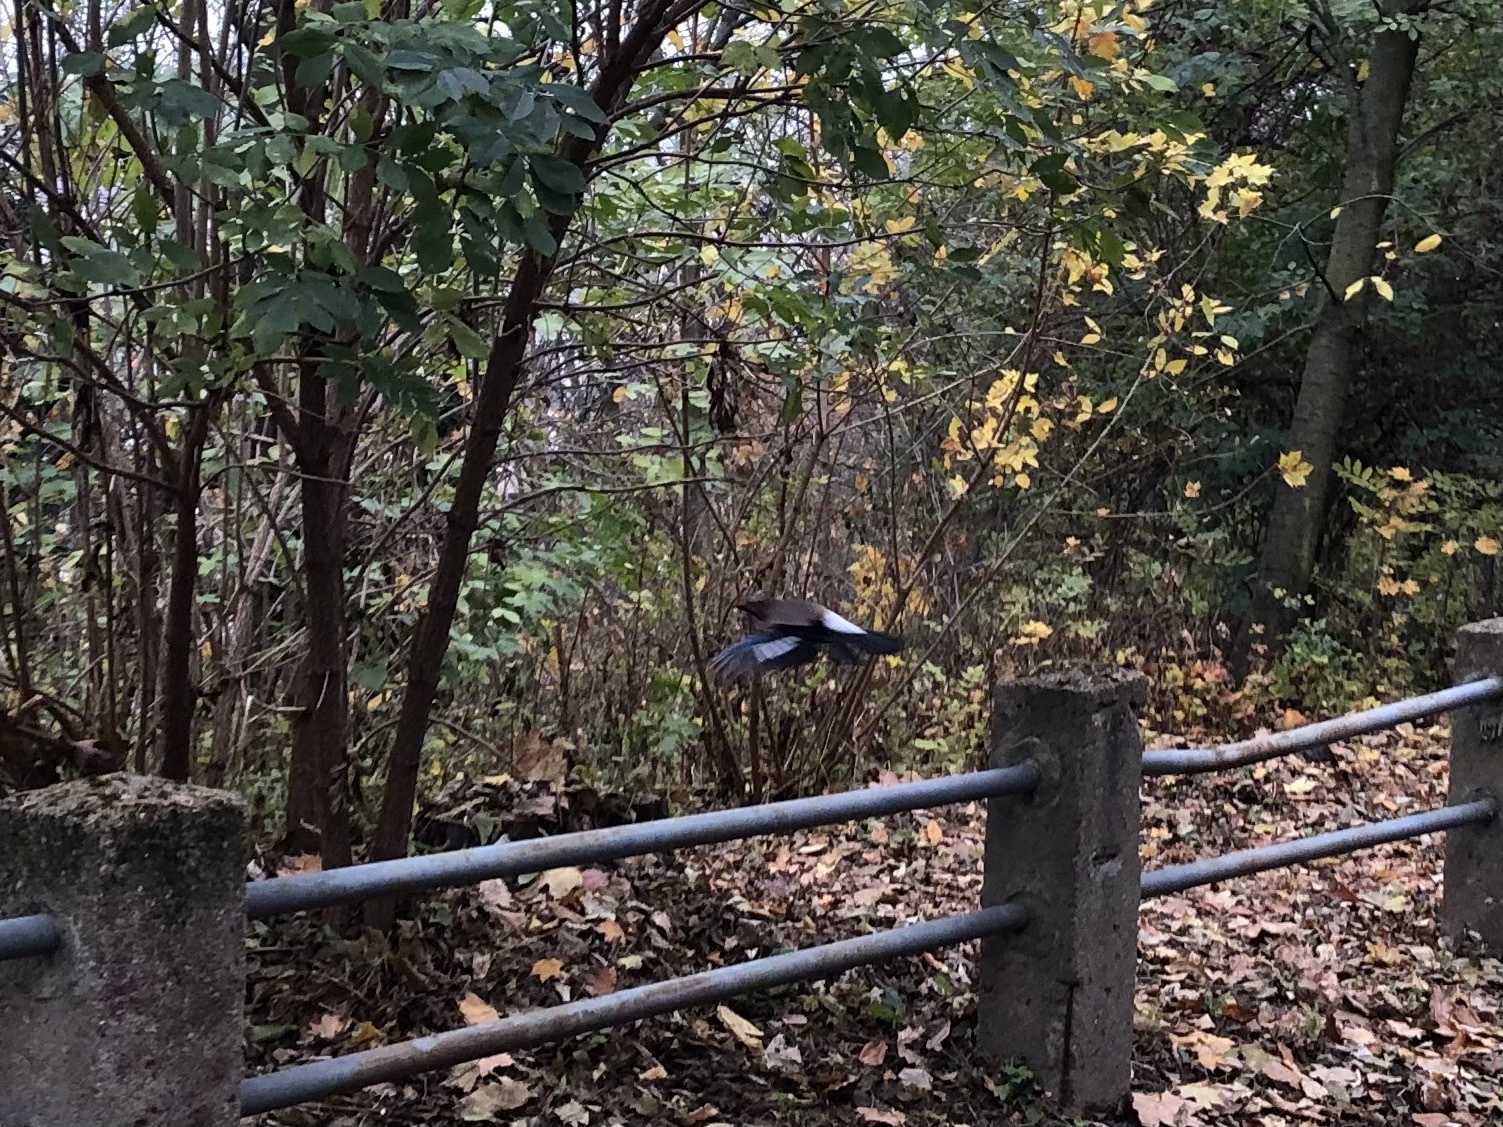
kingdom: Animalia
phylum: Chordata
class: Aves
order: Passeriformes
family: Corvidae
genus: Garrulus
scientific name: Garrulus glandarius
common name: Eurasian jay
